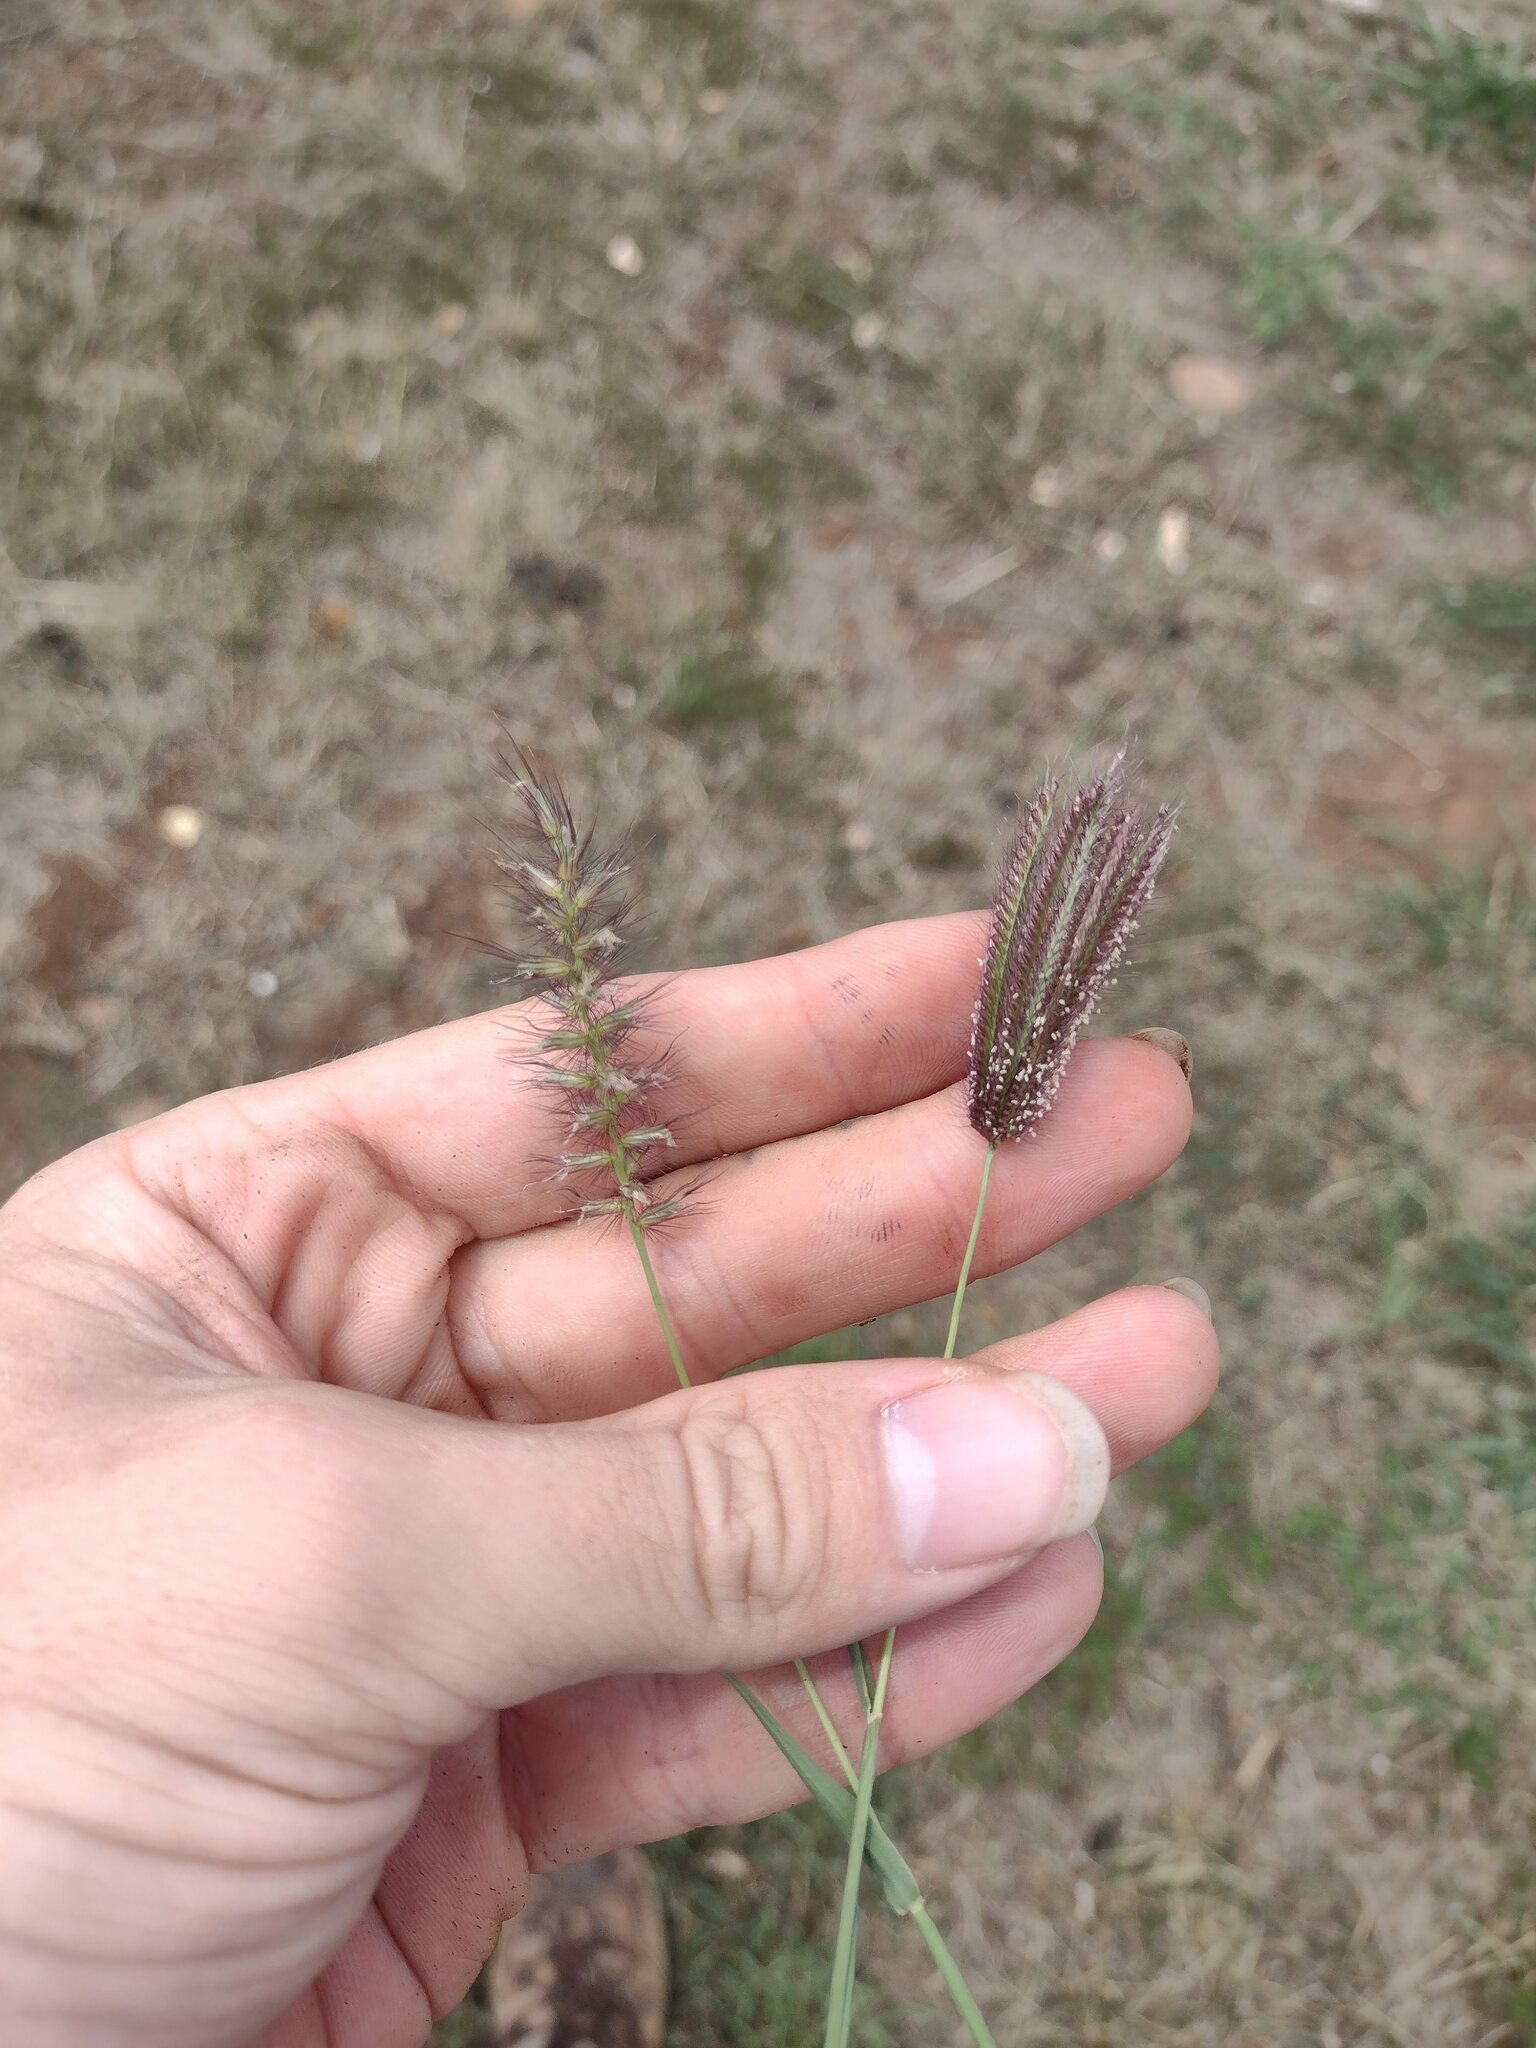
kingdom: Plantae
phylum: Tracheophyta
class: Liliopsida
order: Poales
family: Poaceae
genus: Chloris
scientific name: Chloris barbata
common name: Swollen fingergrass
